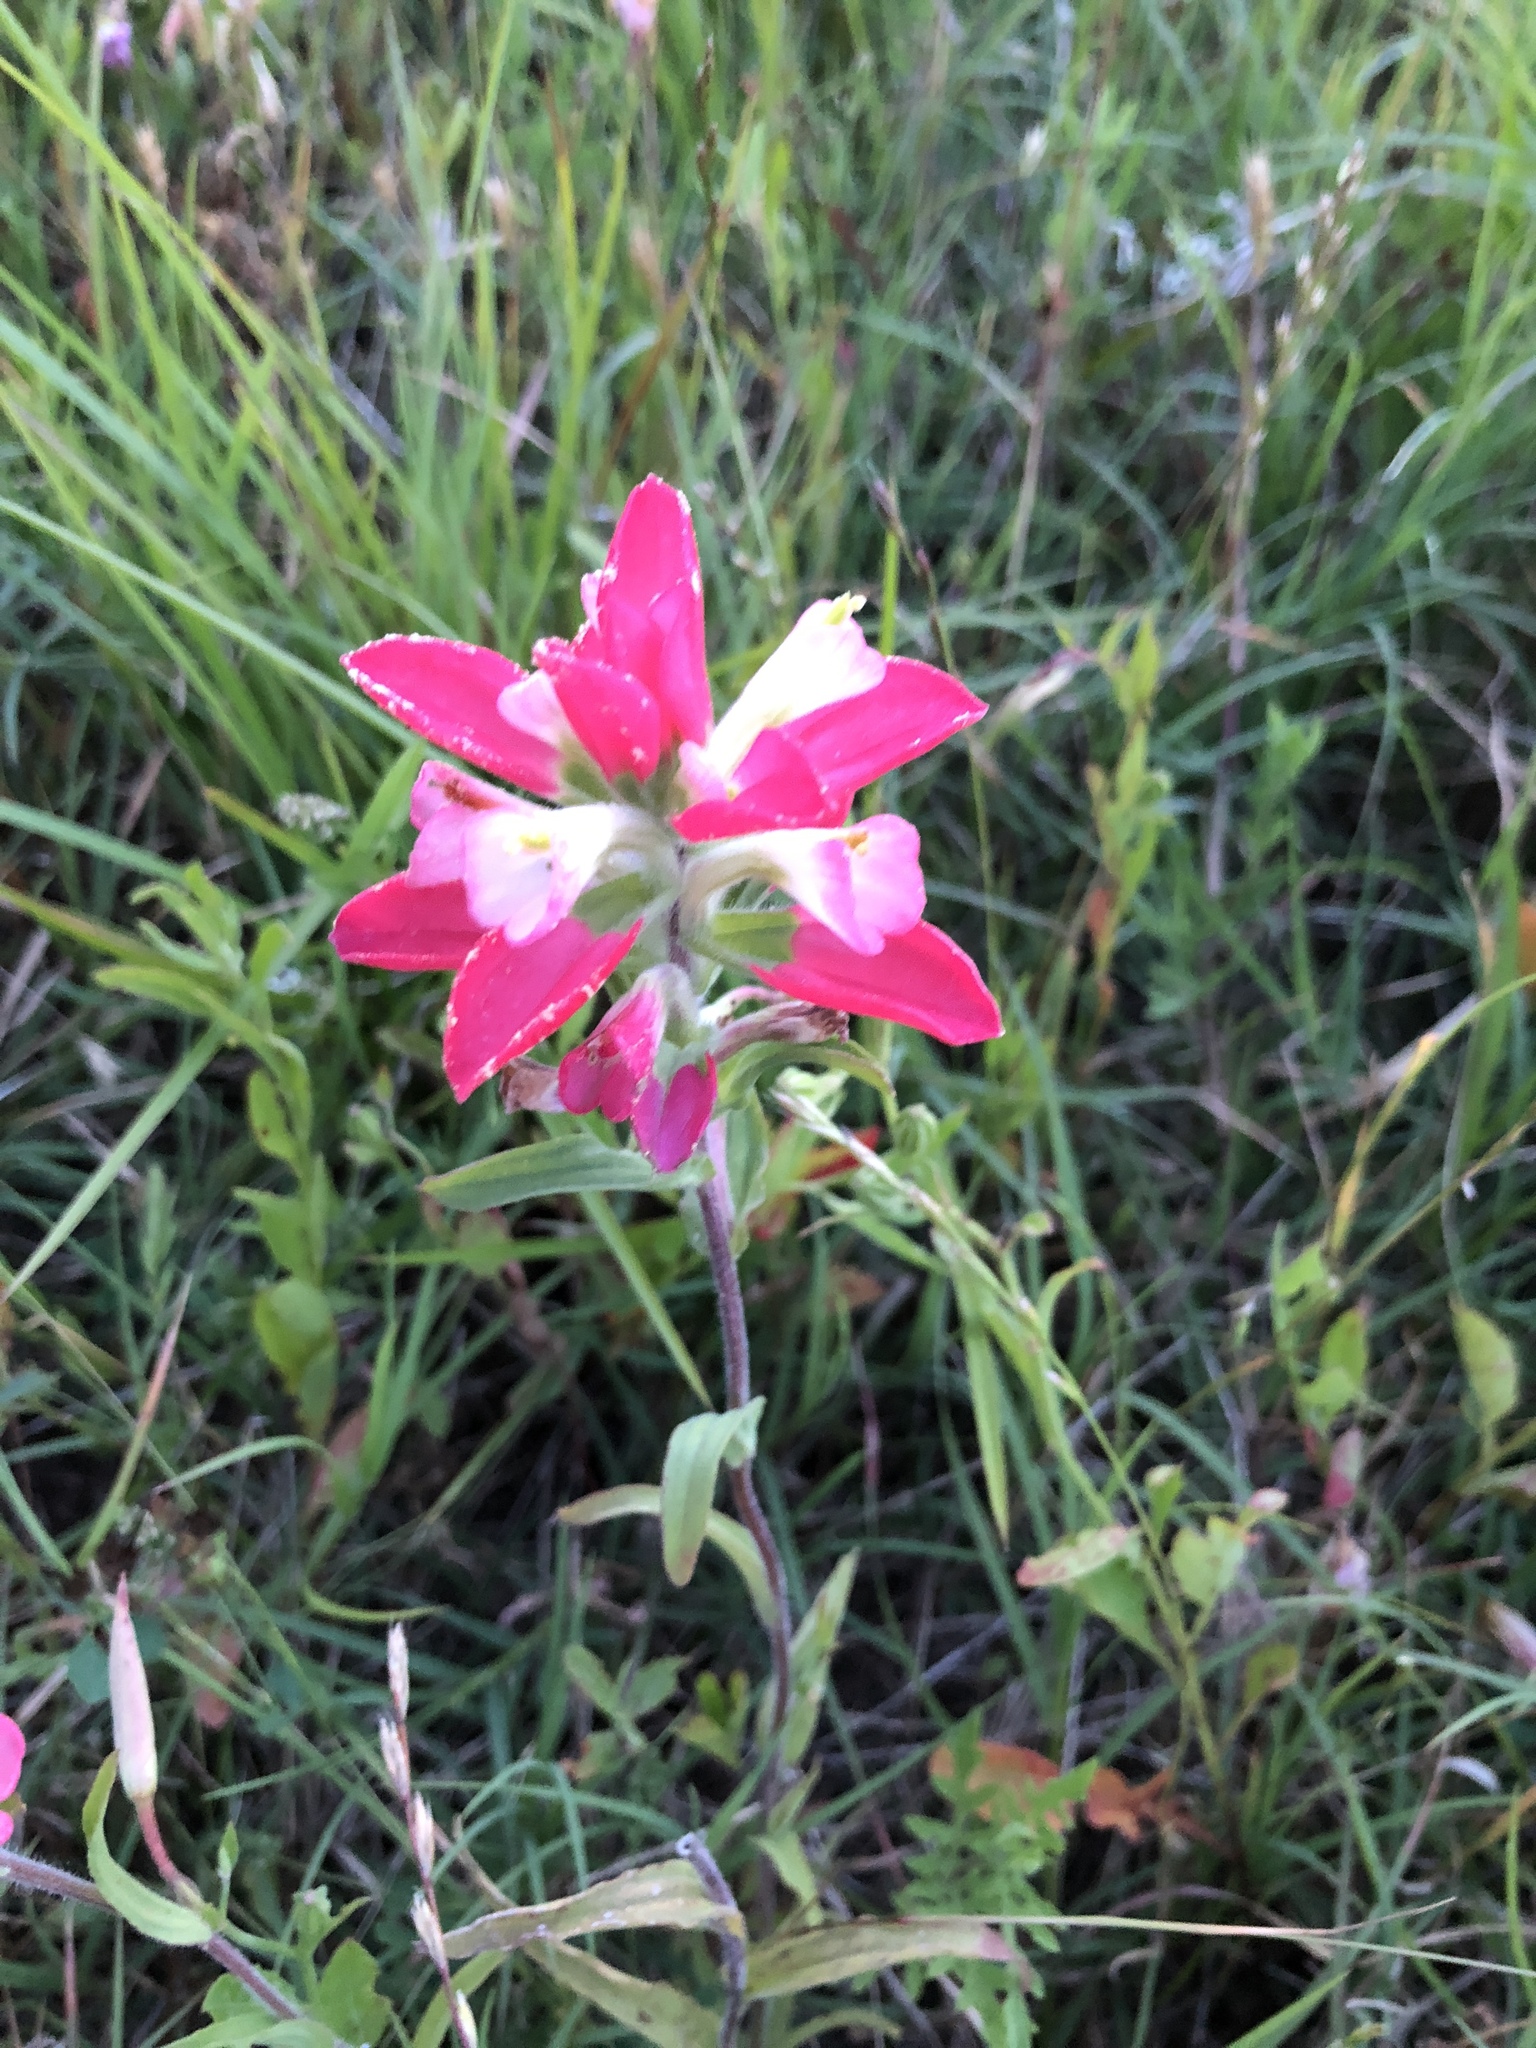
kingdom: Plantae
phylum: Tracheophyta
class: Magnoliopsida
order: Lamiales
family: Orobanchaceae
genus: Castilleja
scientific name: Castilleja indivisa
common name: Texas paintbrush
